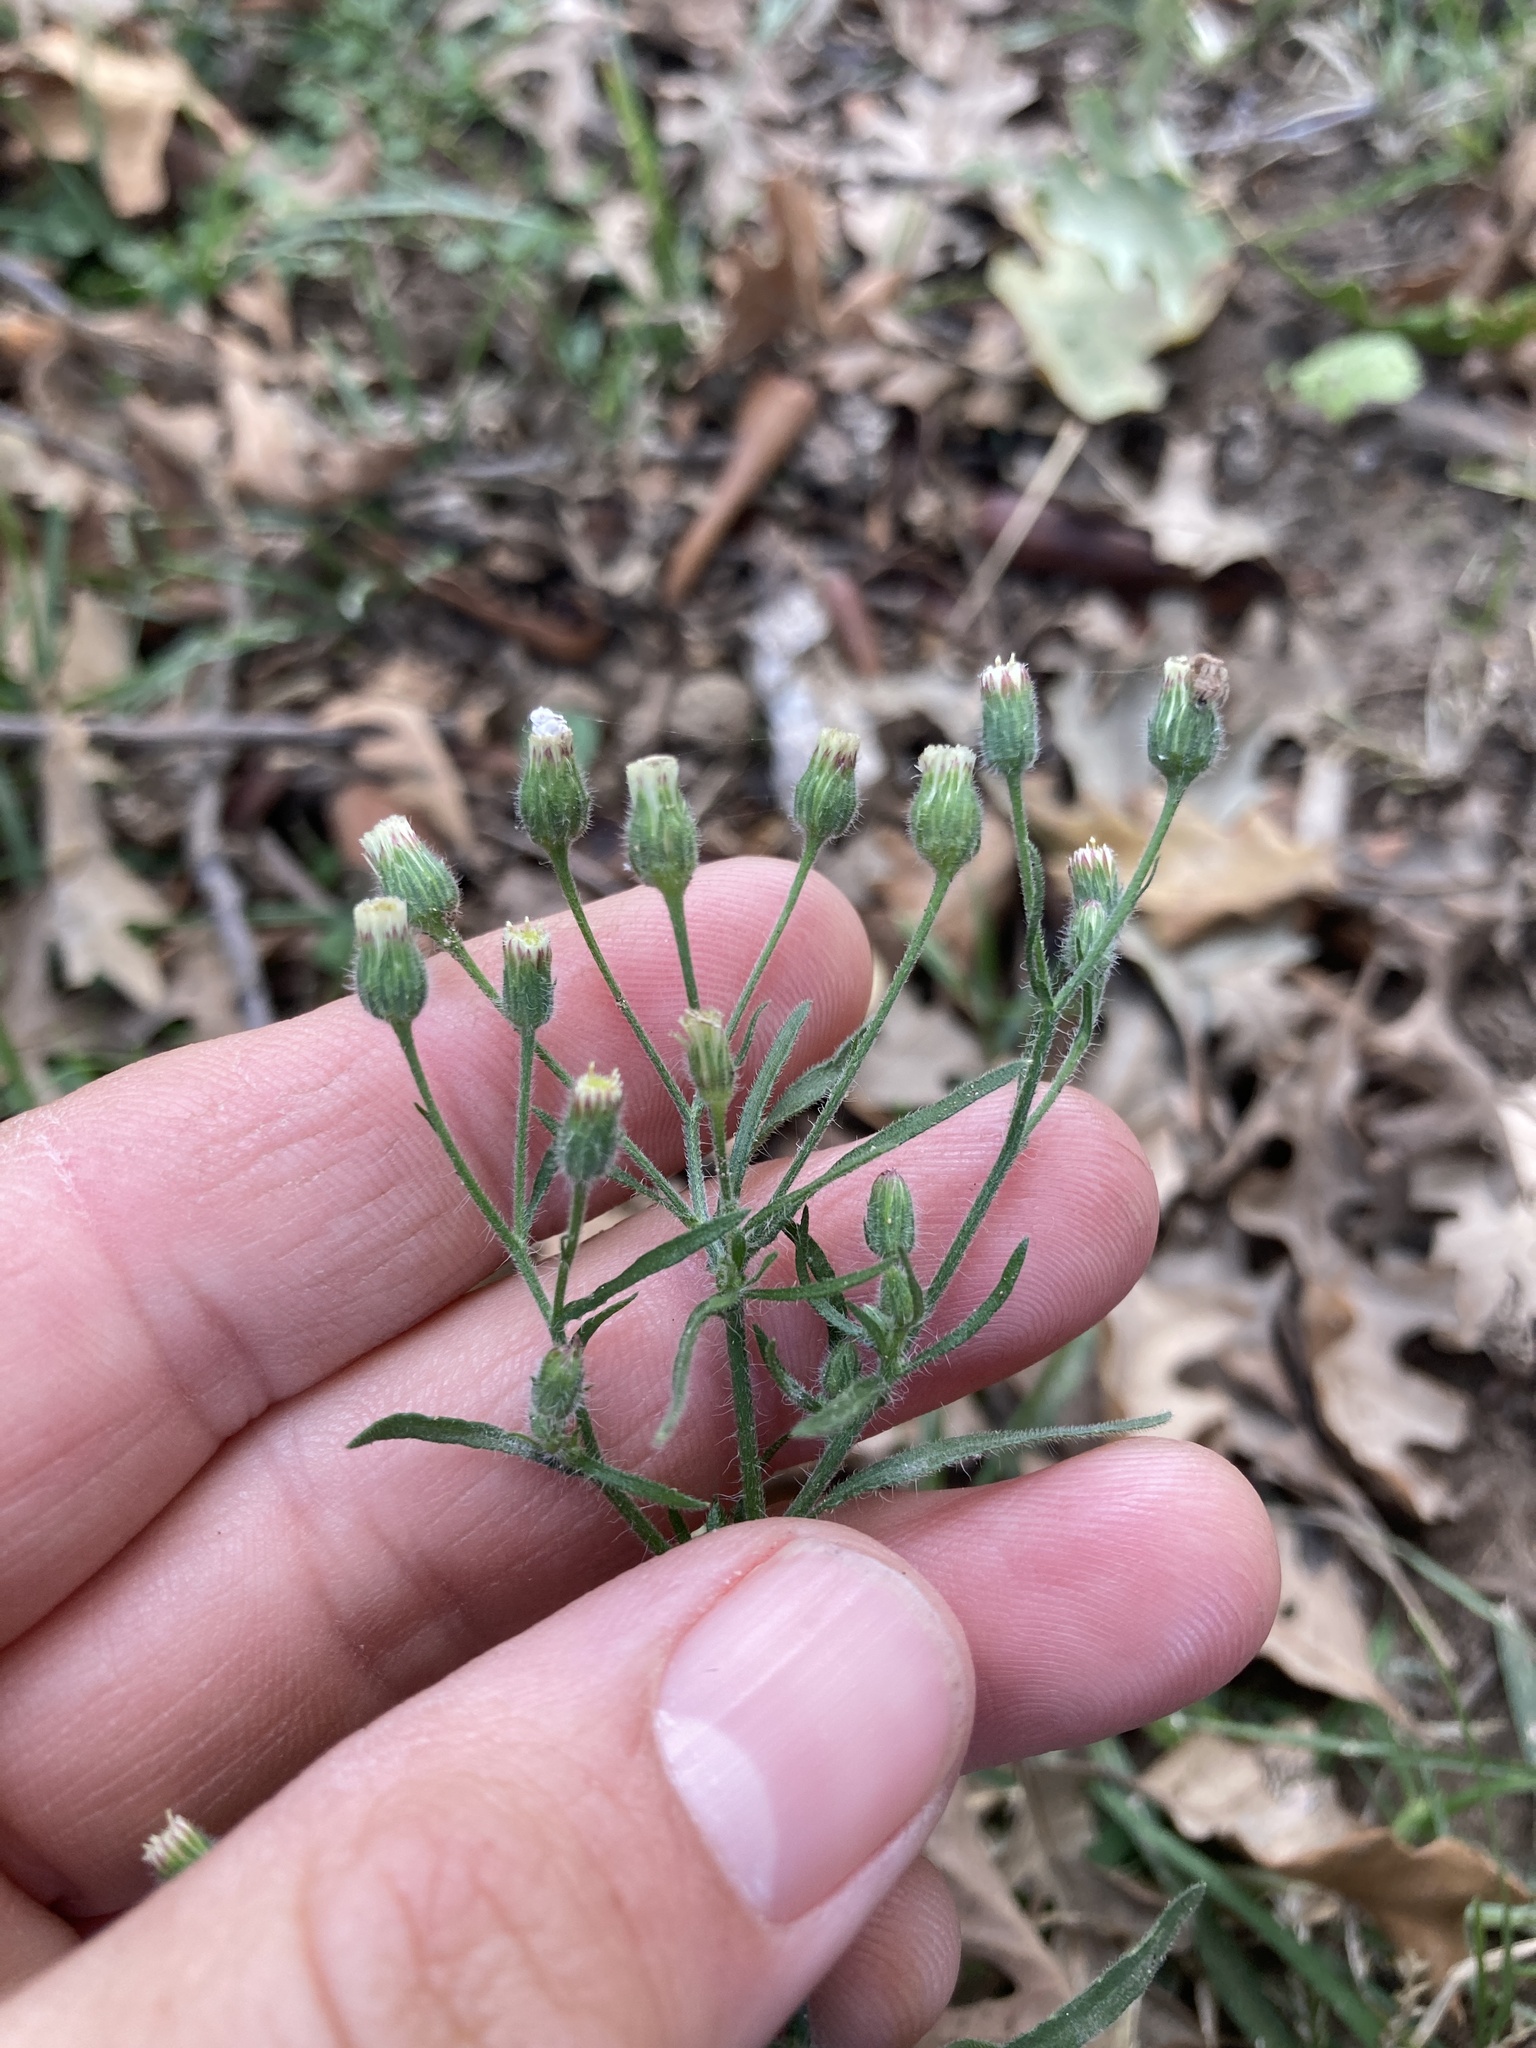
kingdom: Plantae
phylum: Tracheophyta
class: Magnoliopsida
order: Asterales
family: Asteraceae
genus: Erigeron
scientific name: Erigeron bonariensis
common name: Argentine fleabane
